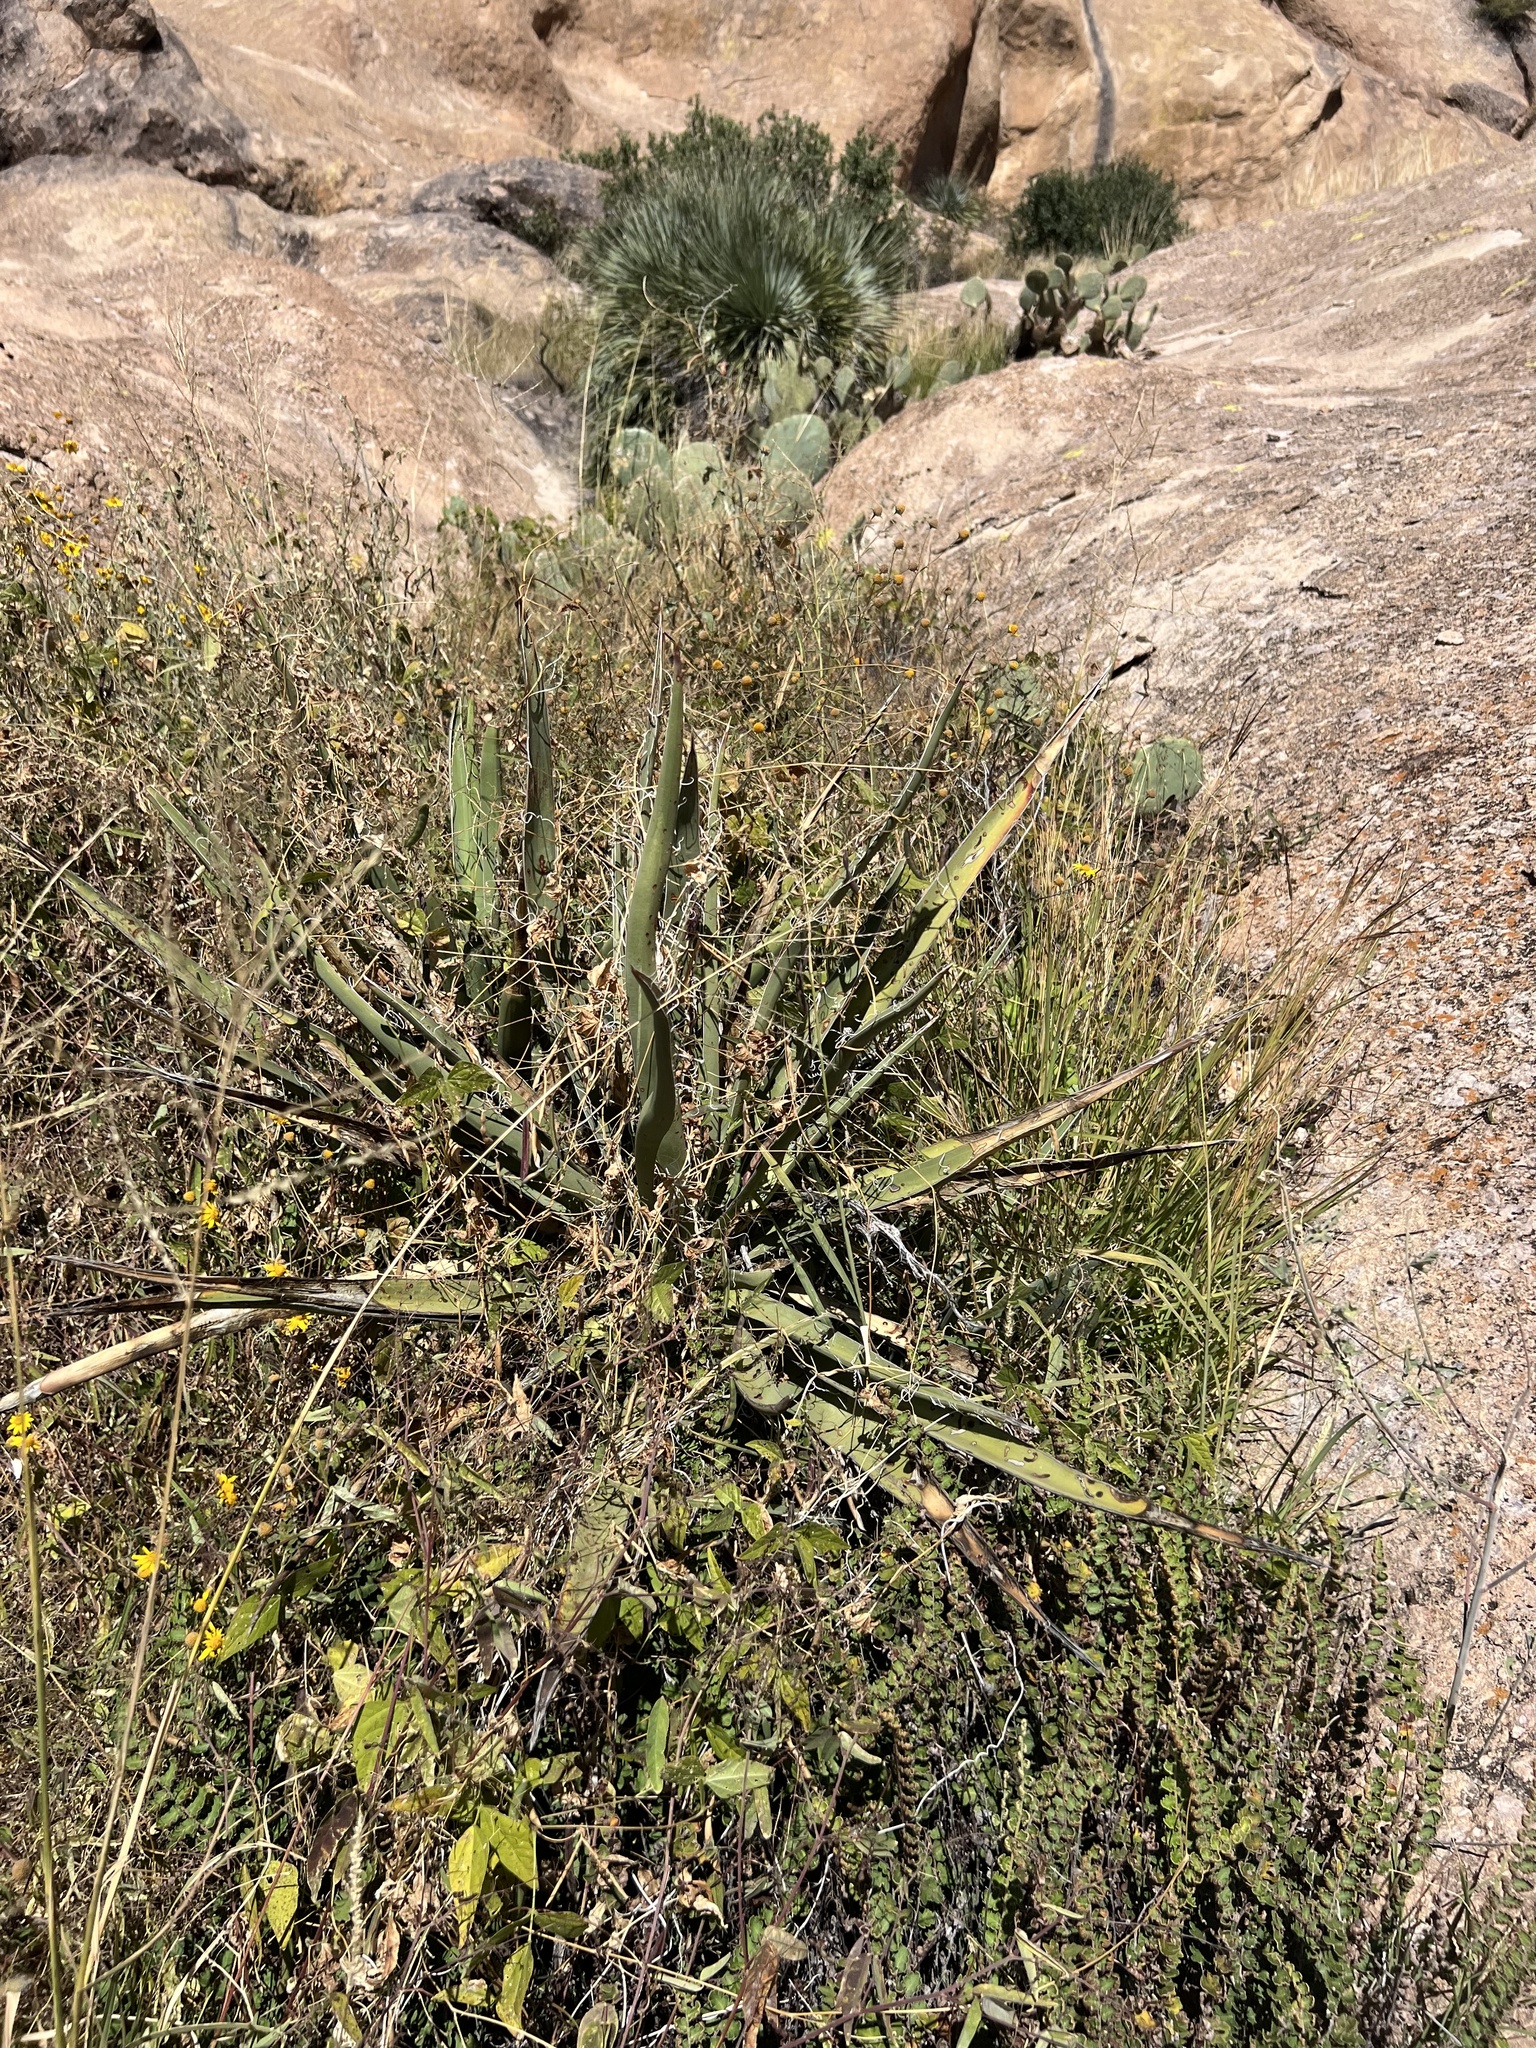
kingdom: Plantae
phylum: Tracheophyta
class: Liliopsida
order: Asparagales
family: Asparagaceae
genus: Yucca
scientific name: Yucca baccata
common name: Banana yucca
